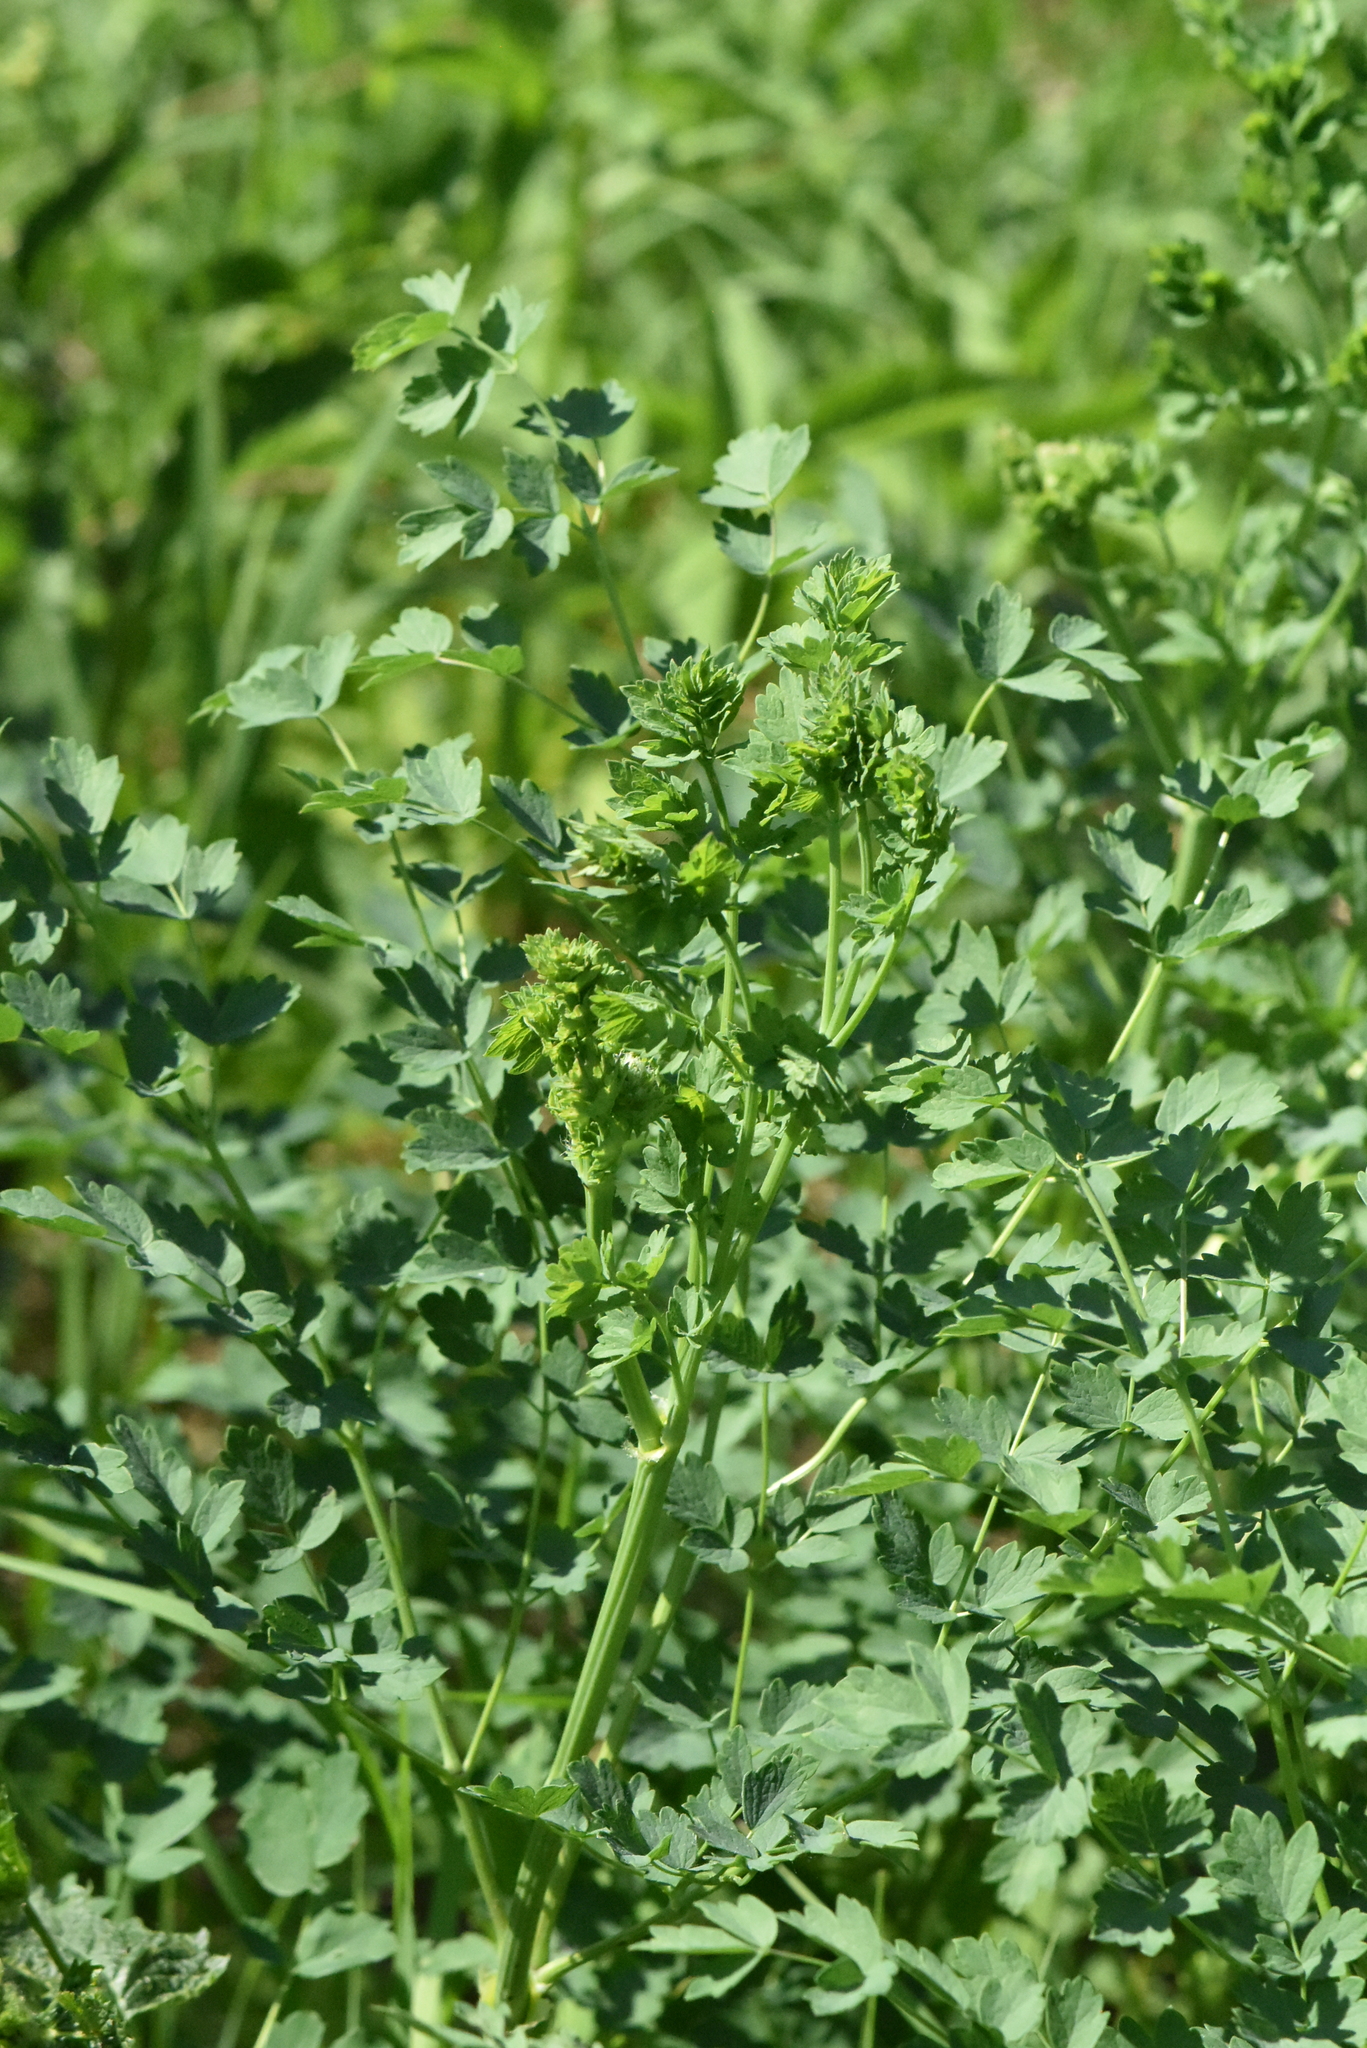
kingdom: Plantae
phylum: Tracheophyta
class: Magnoliopsida
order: Ranunculales
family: Ranunculaceae
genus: Thalictrum
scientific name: Thalictrum minus
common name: Lesser meadow-rue
